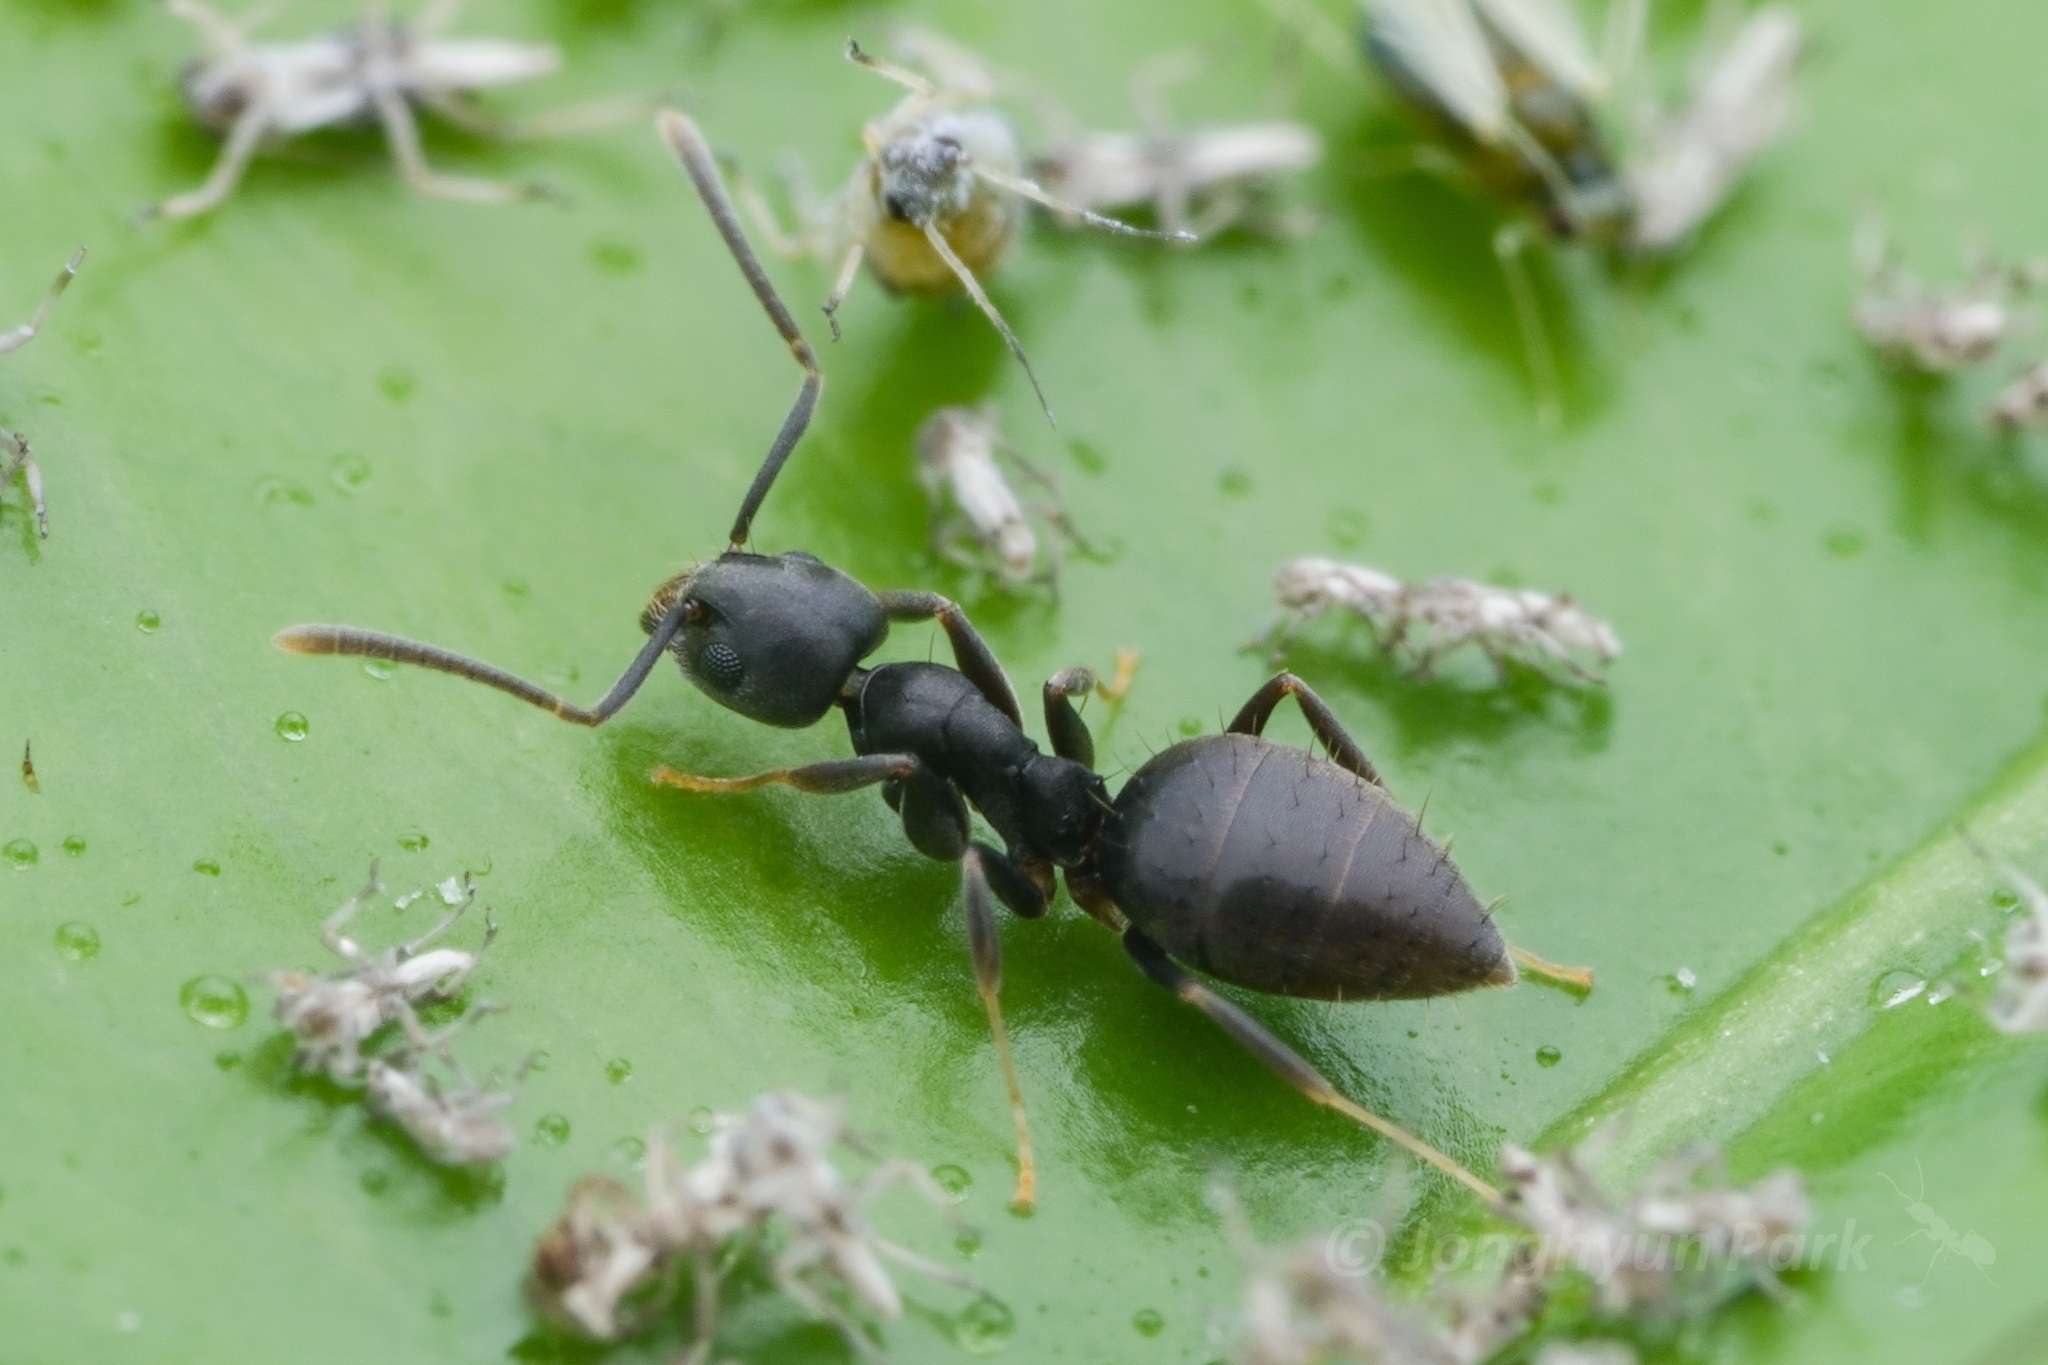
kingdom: Animalia
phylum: Arthropoda
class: Insecta
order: Hymenoptera
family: Formicidae
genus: Technomyrmex
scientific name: Technomyrmex vitiensis
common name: Ant
